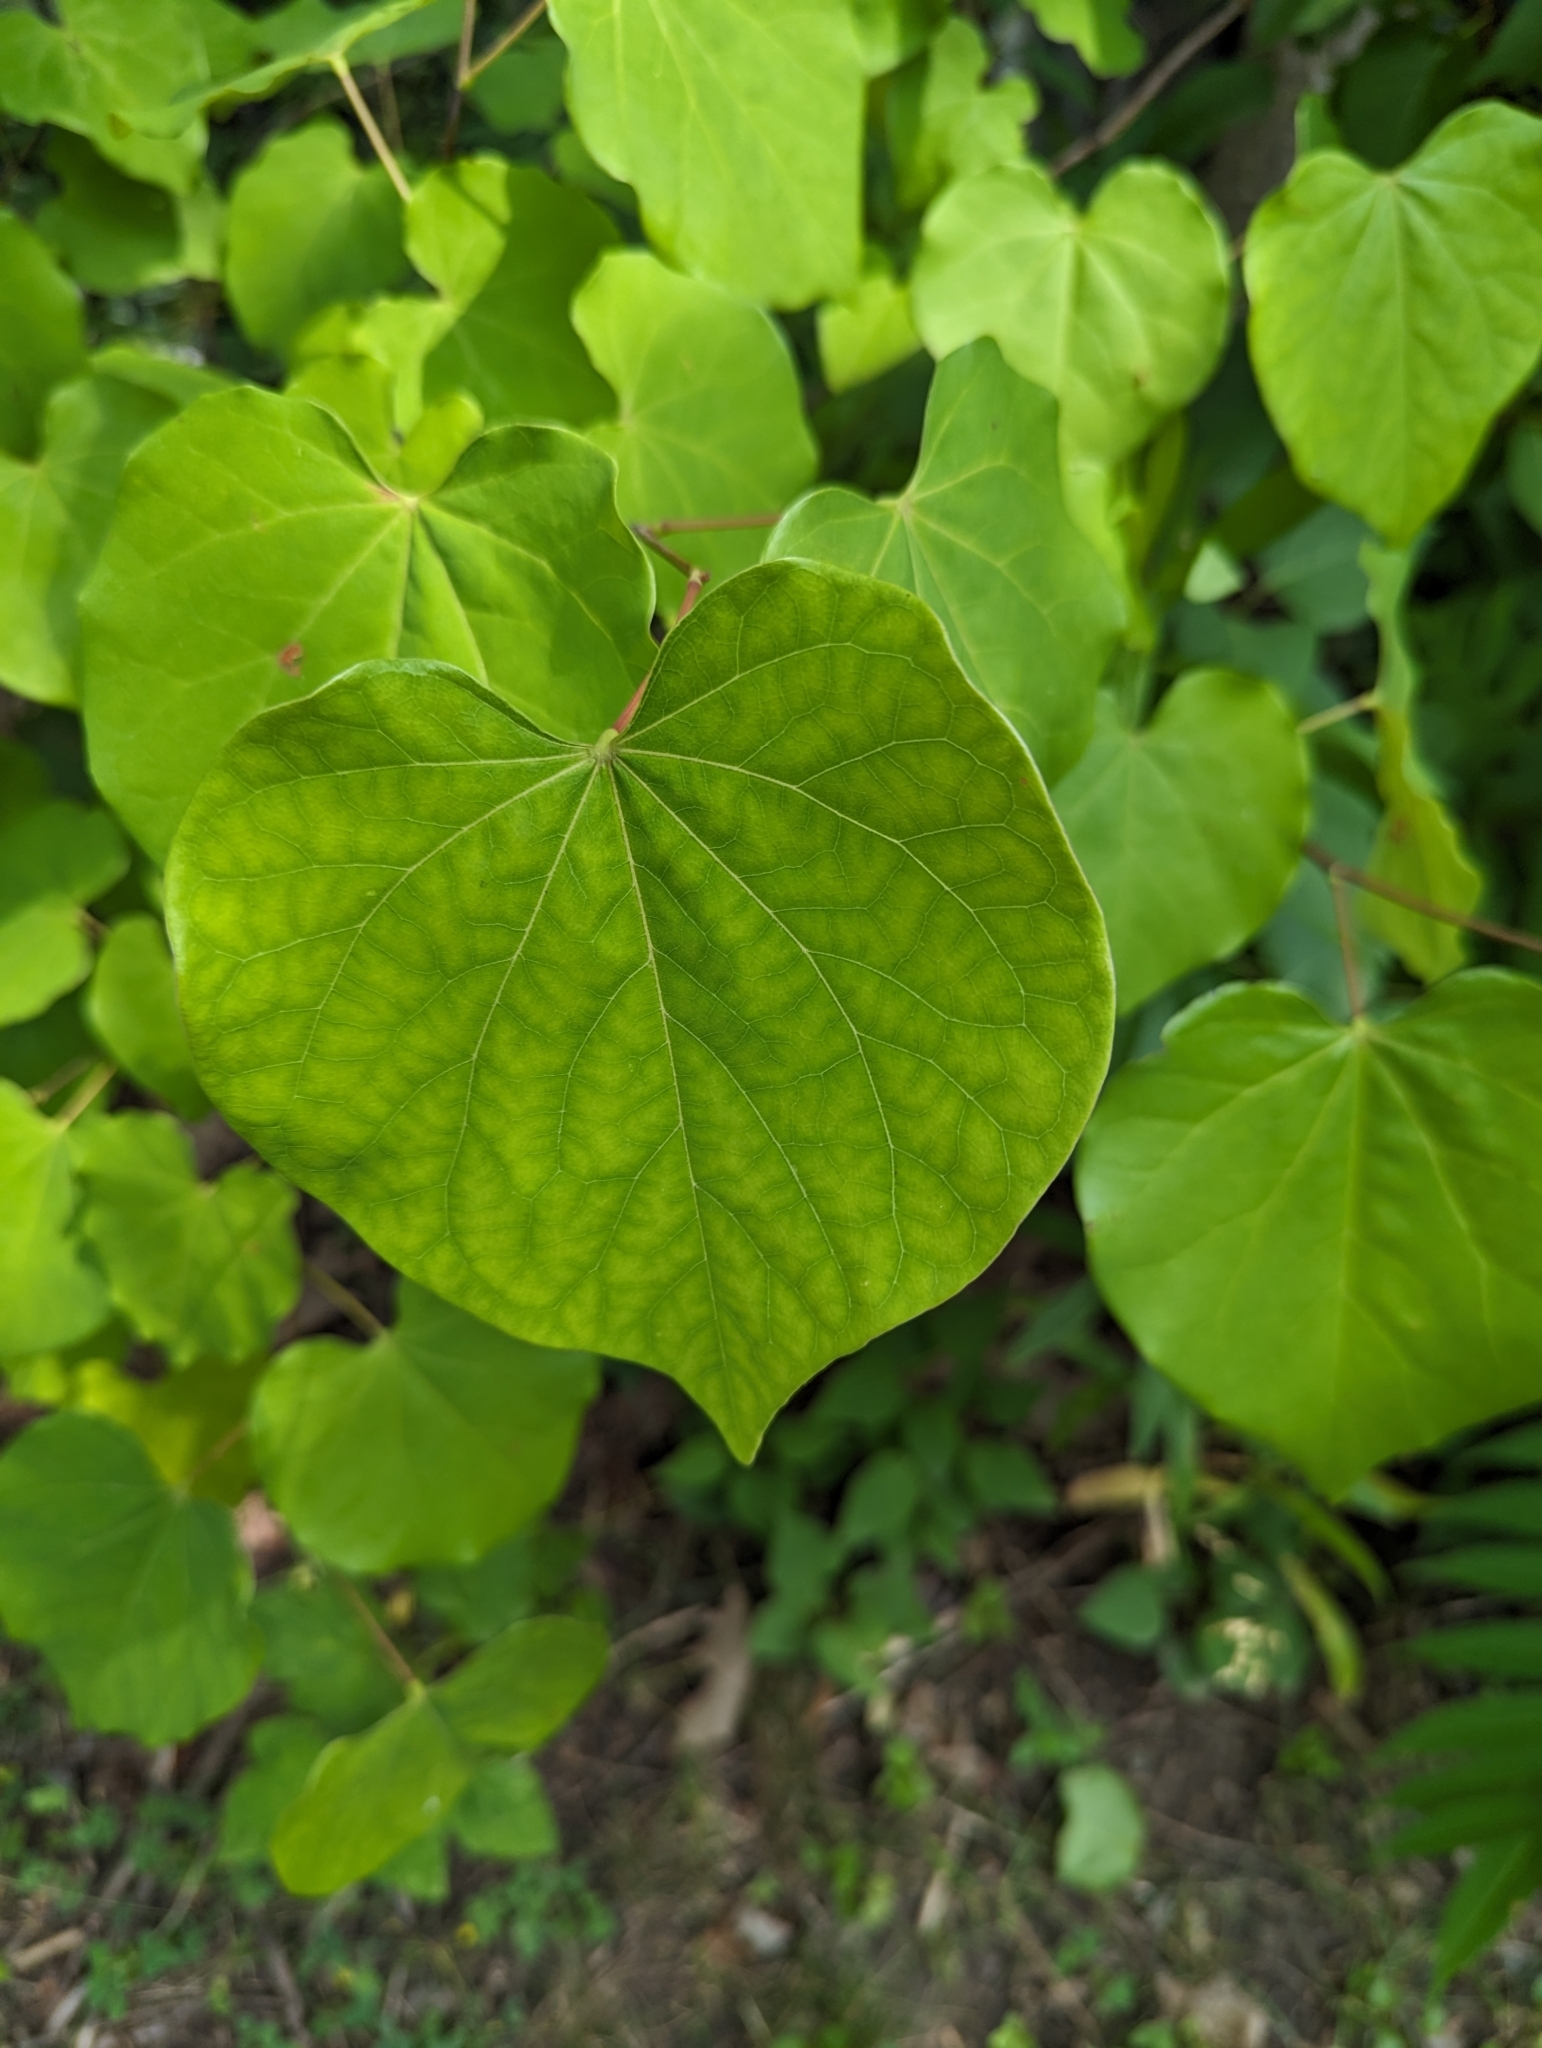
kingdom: Plantae
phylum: Tracheophyta
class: Magnoliopsida
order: Fabales
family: Fabaceae
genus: Cercis
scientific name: Cercis canadensis
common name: Eastern redbud
